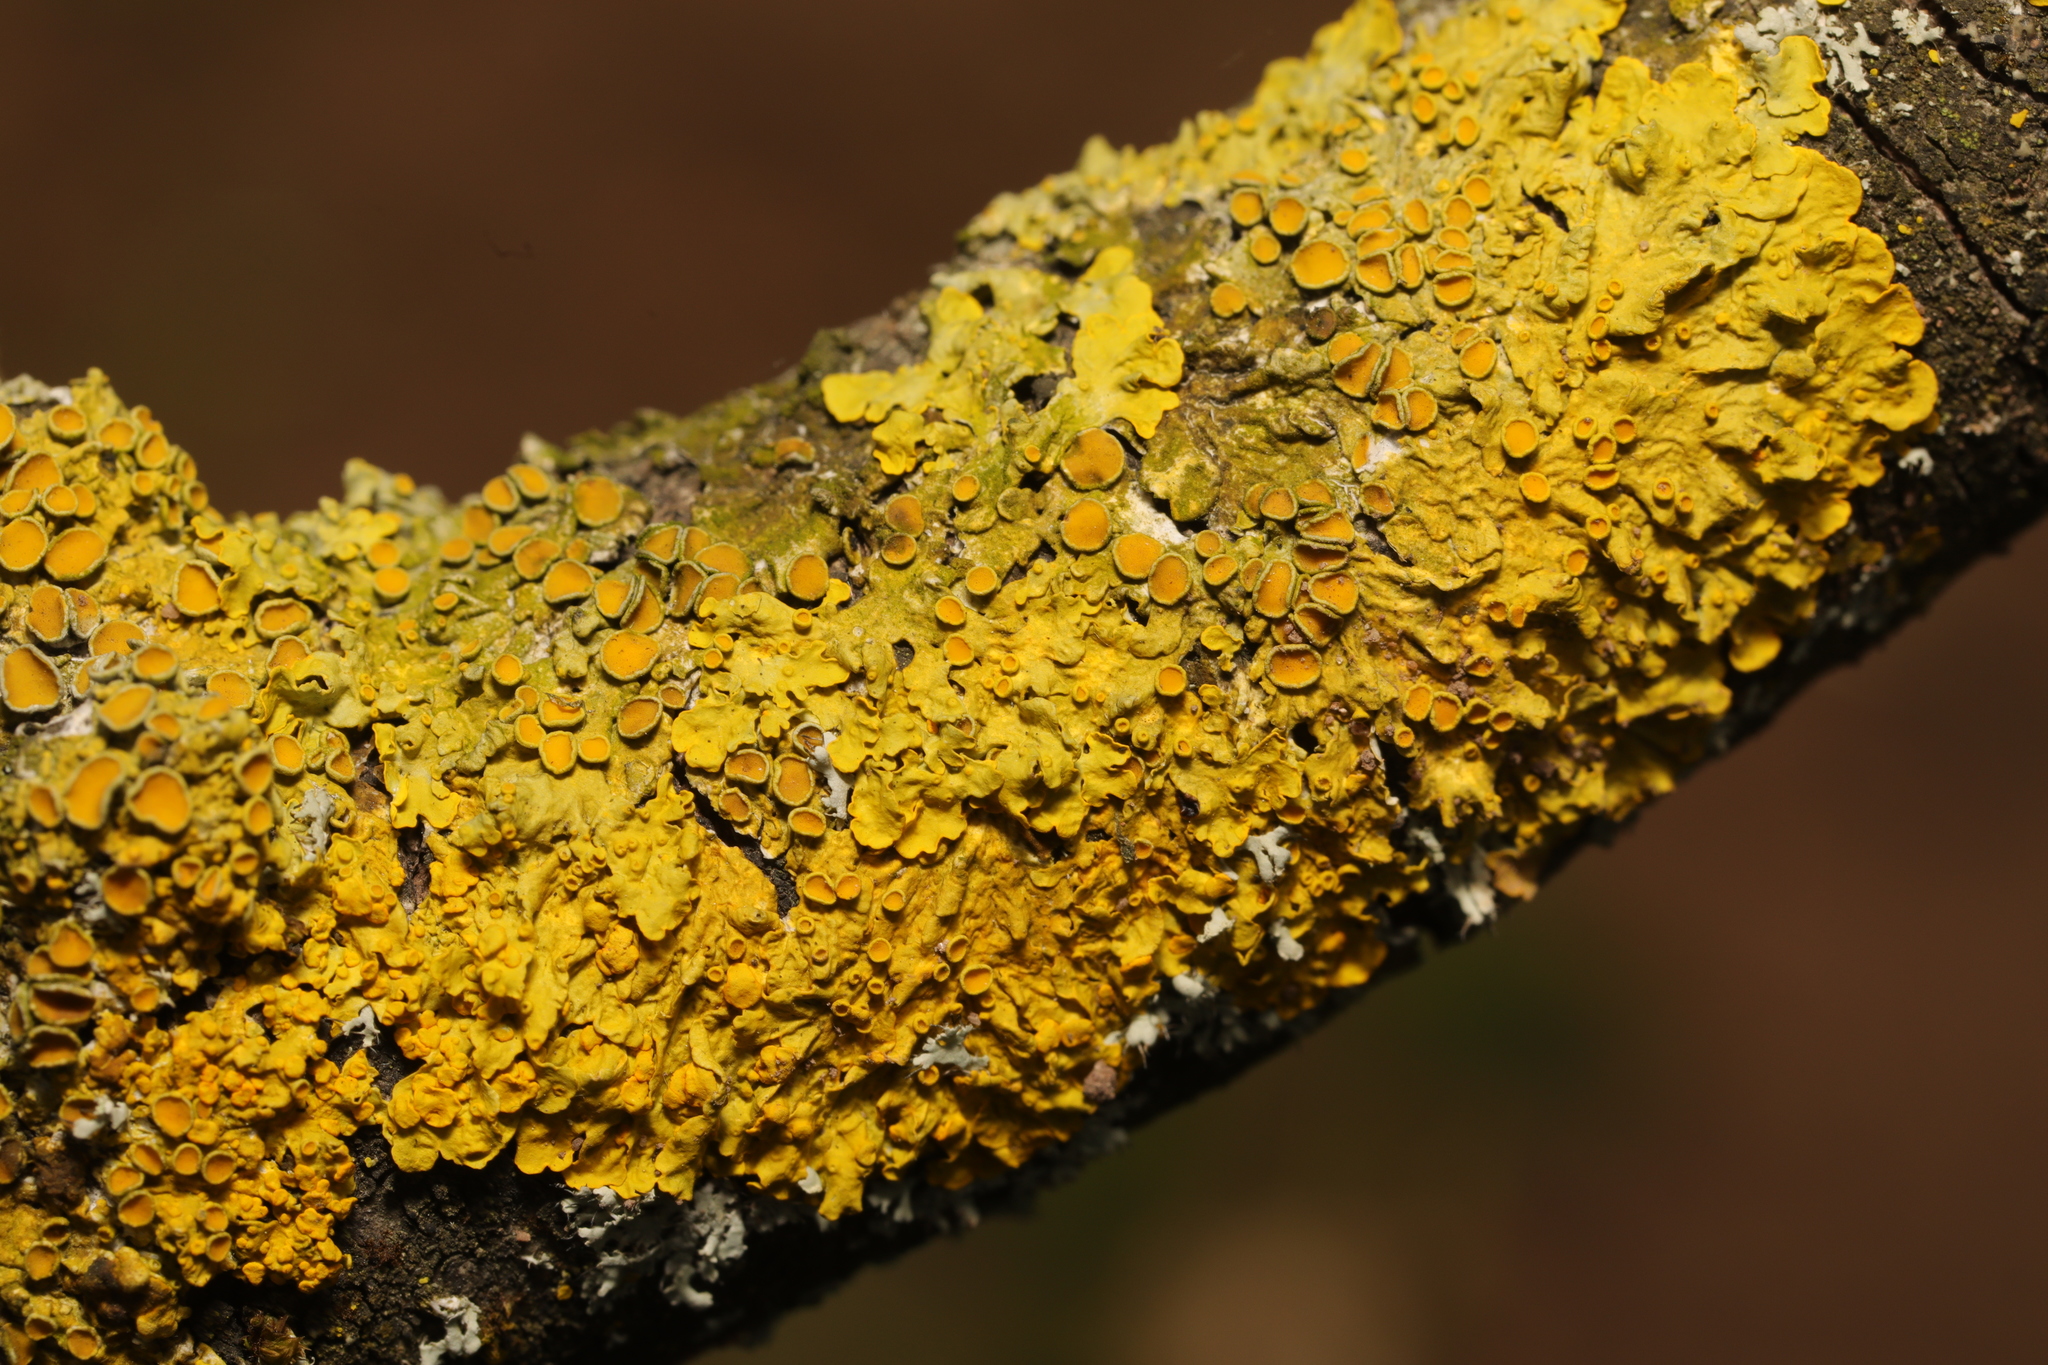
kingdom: Fungi
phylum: Ascomycota
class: Lecanoromycetes
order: Teloschistales
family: Teloschistaceae
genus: Xanthoria
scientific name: Xanthoria parietina
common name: Common orange lichen
